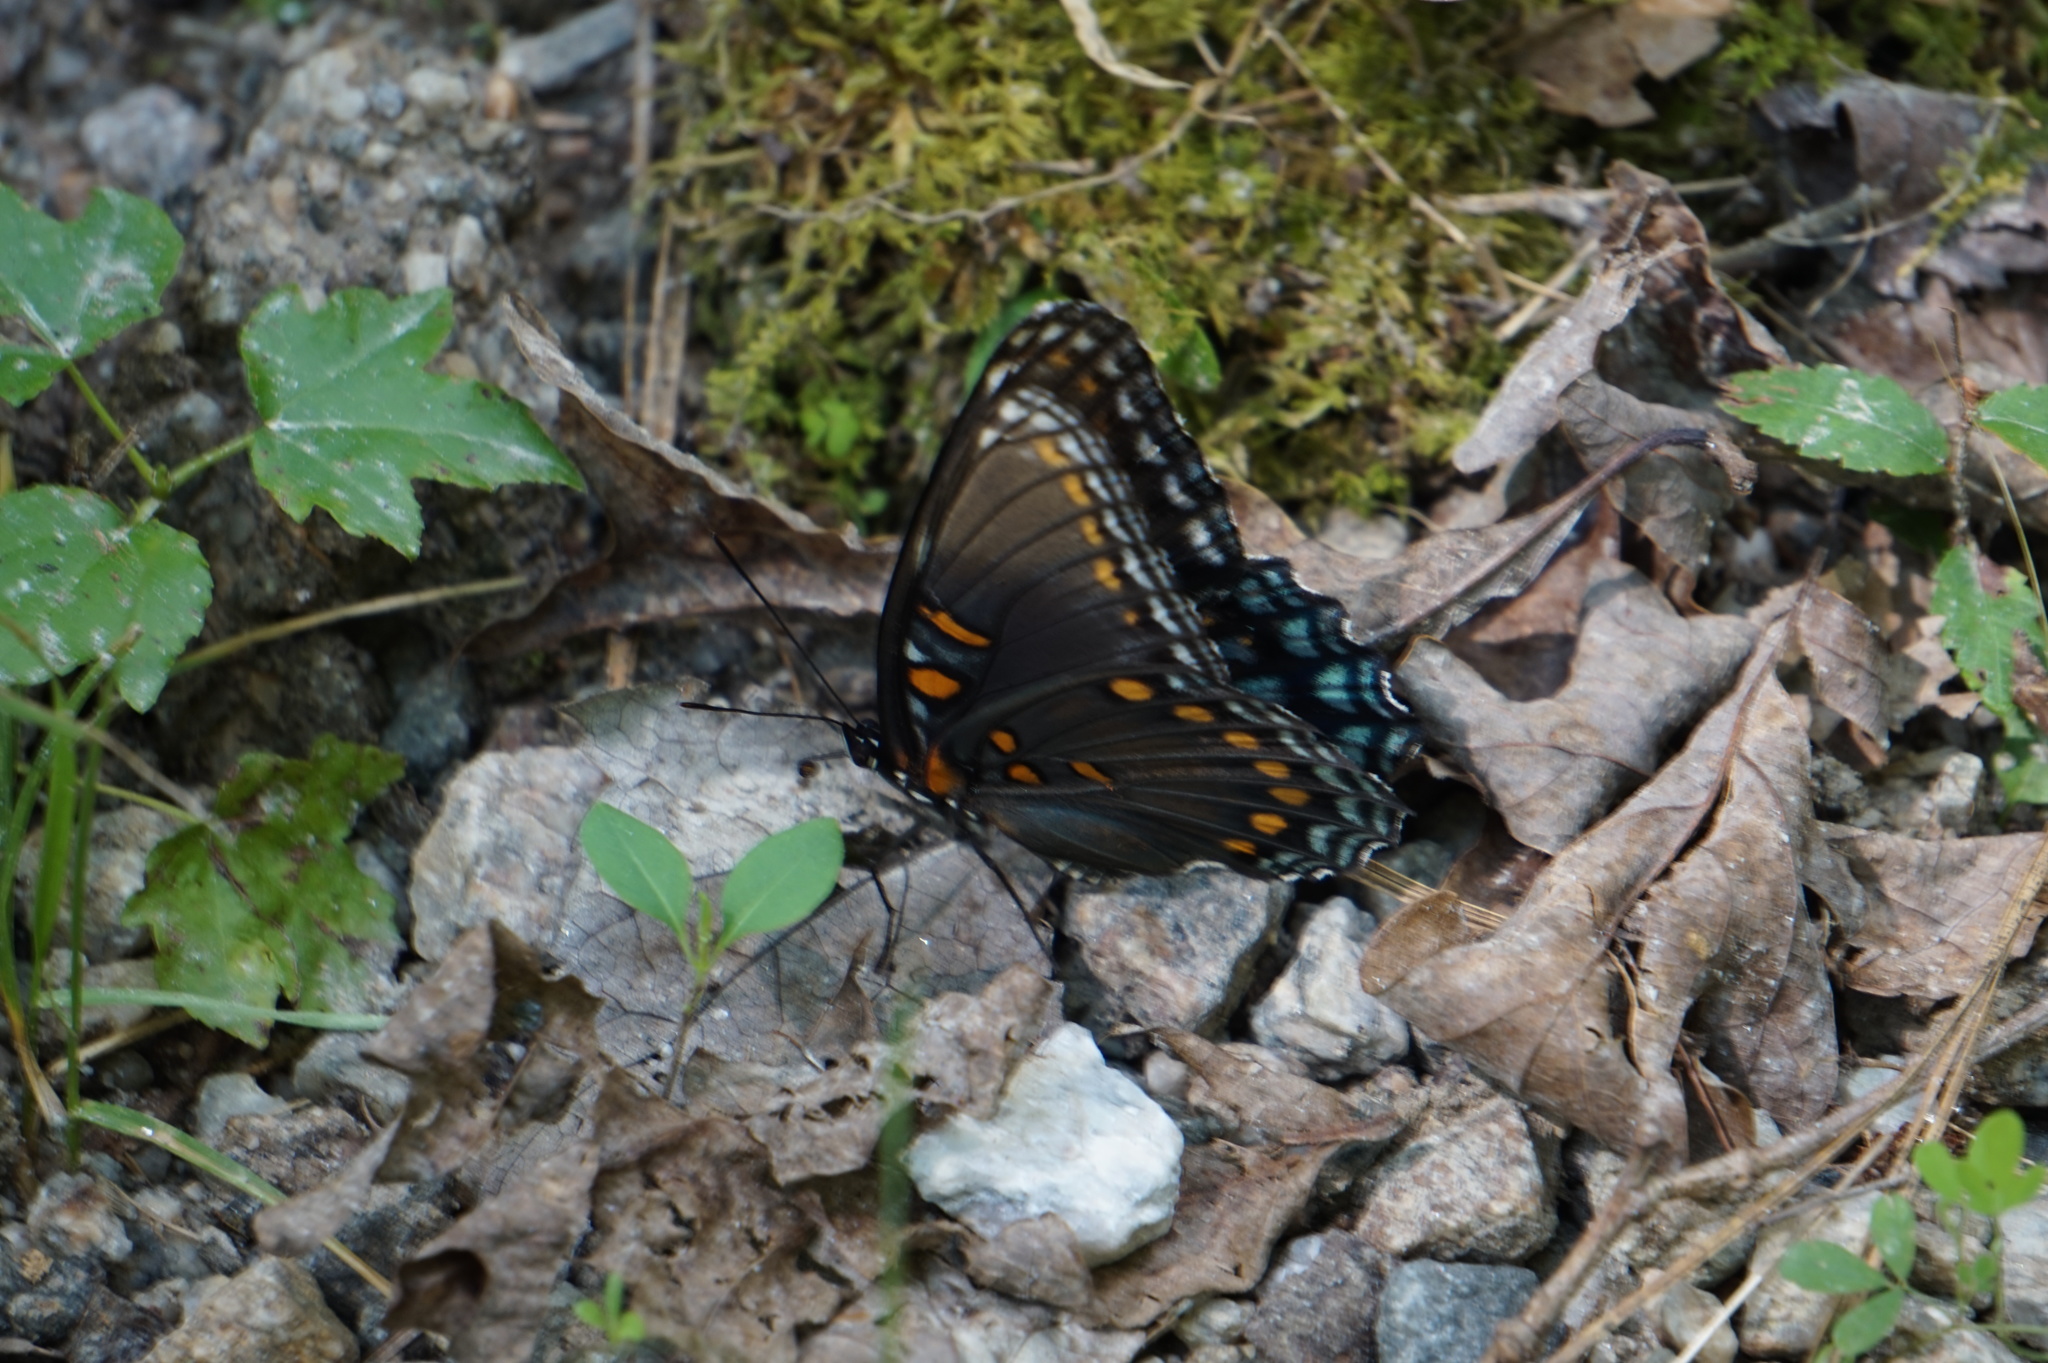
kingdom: Animalia
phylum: Arthropoda
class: Insecta
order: Lepidoptera
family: Nymphalidae
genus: Limenitis
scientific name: Limenitis astyanax
